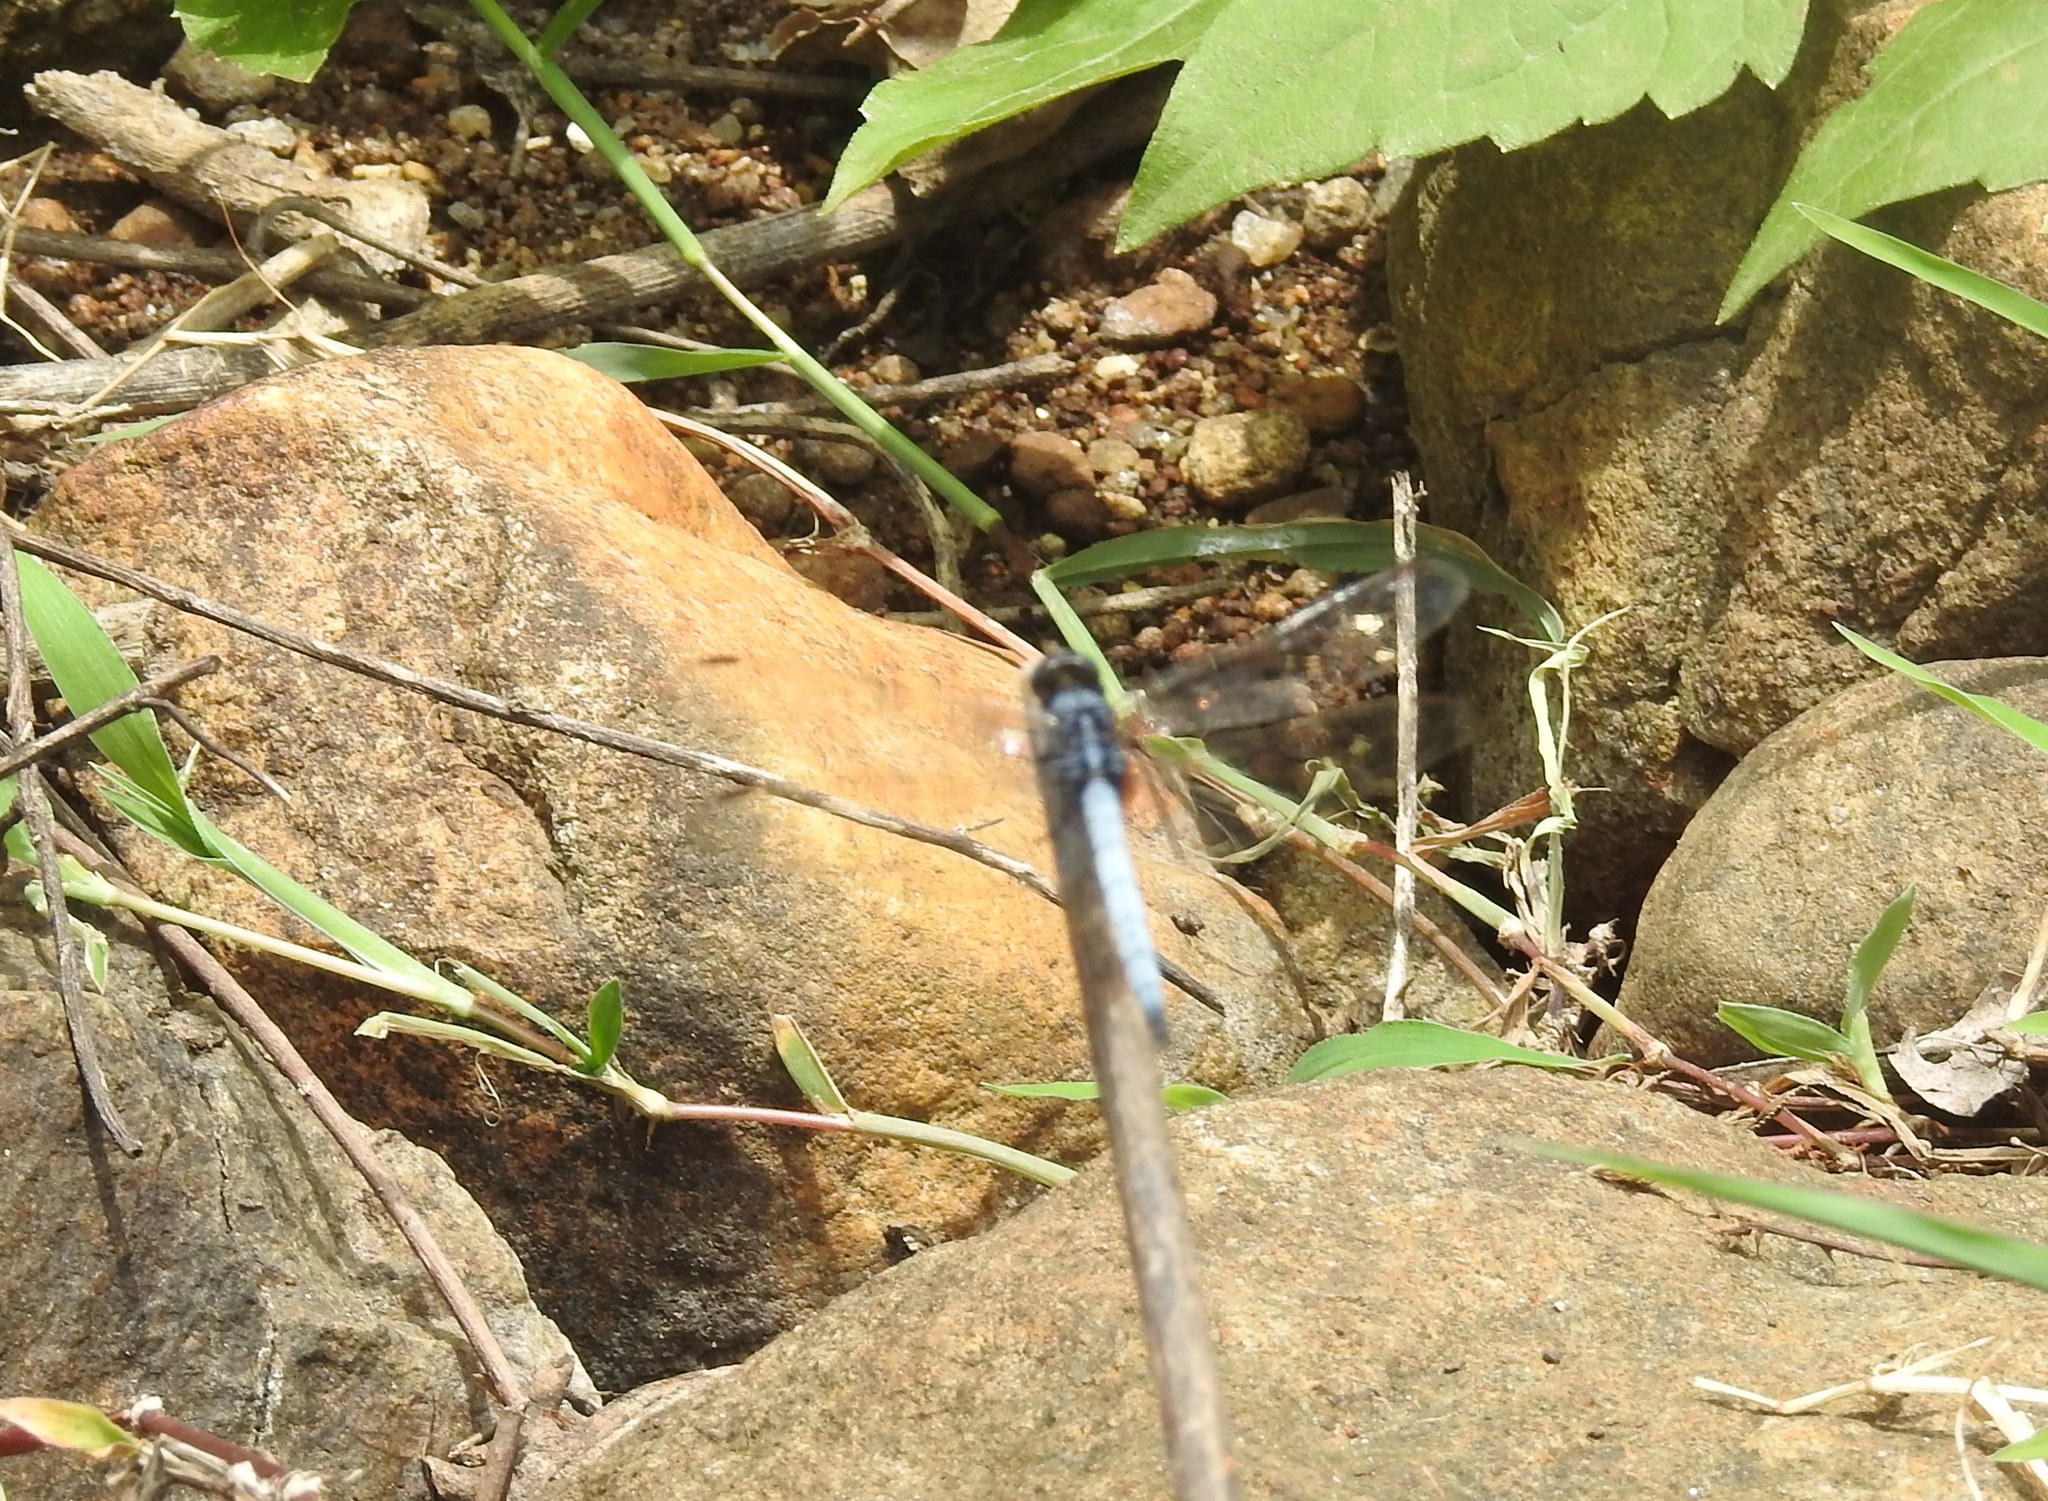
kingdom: Animalia
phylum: Arthropoda
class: Insecta
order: Odonata
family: Libellulidae
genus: Orthetrum
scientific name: Orthetrum glaucum
